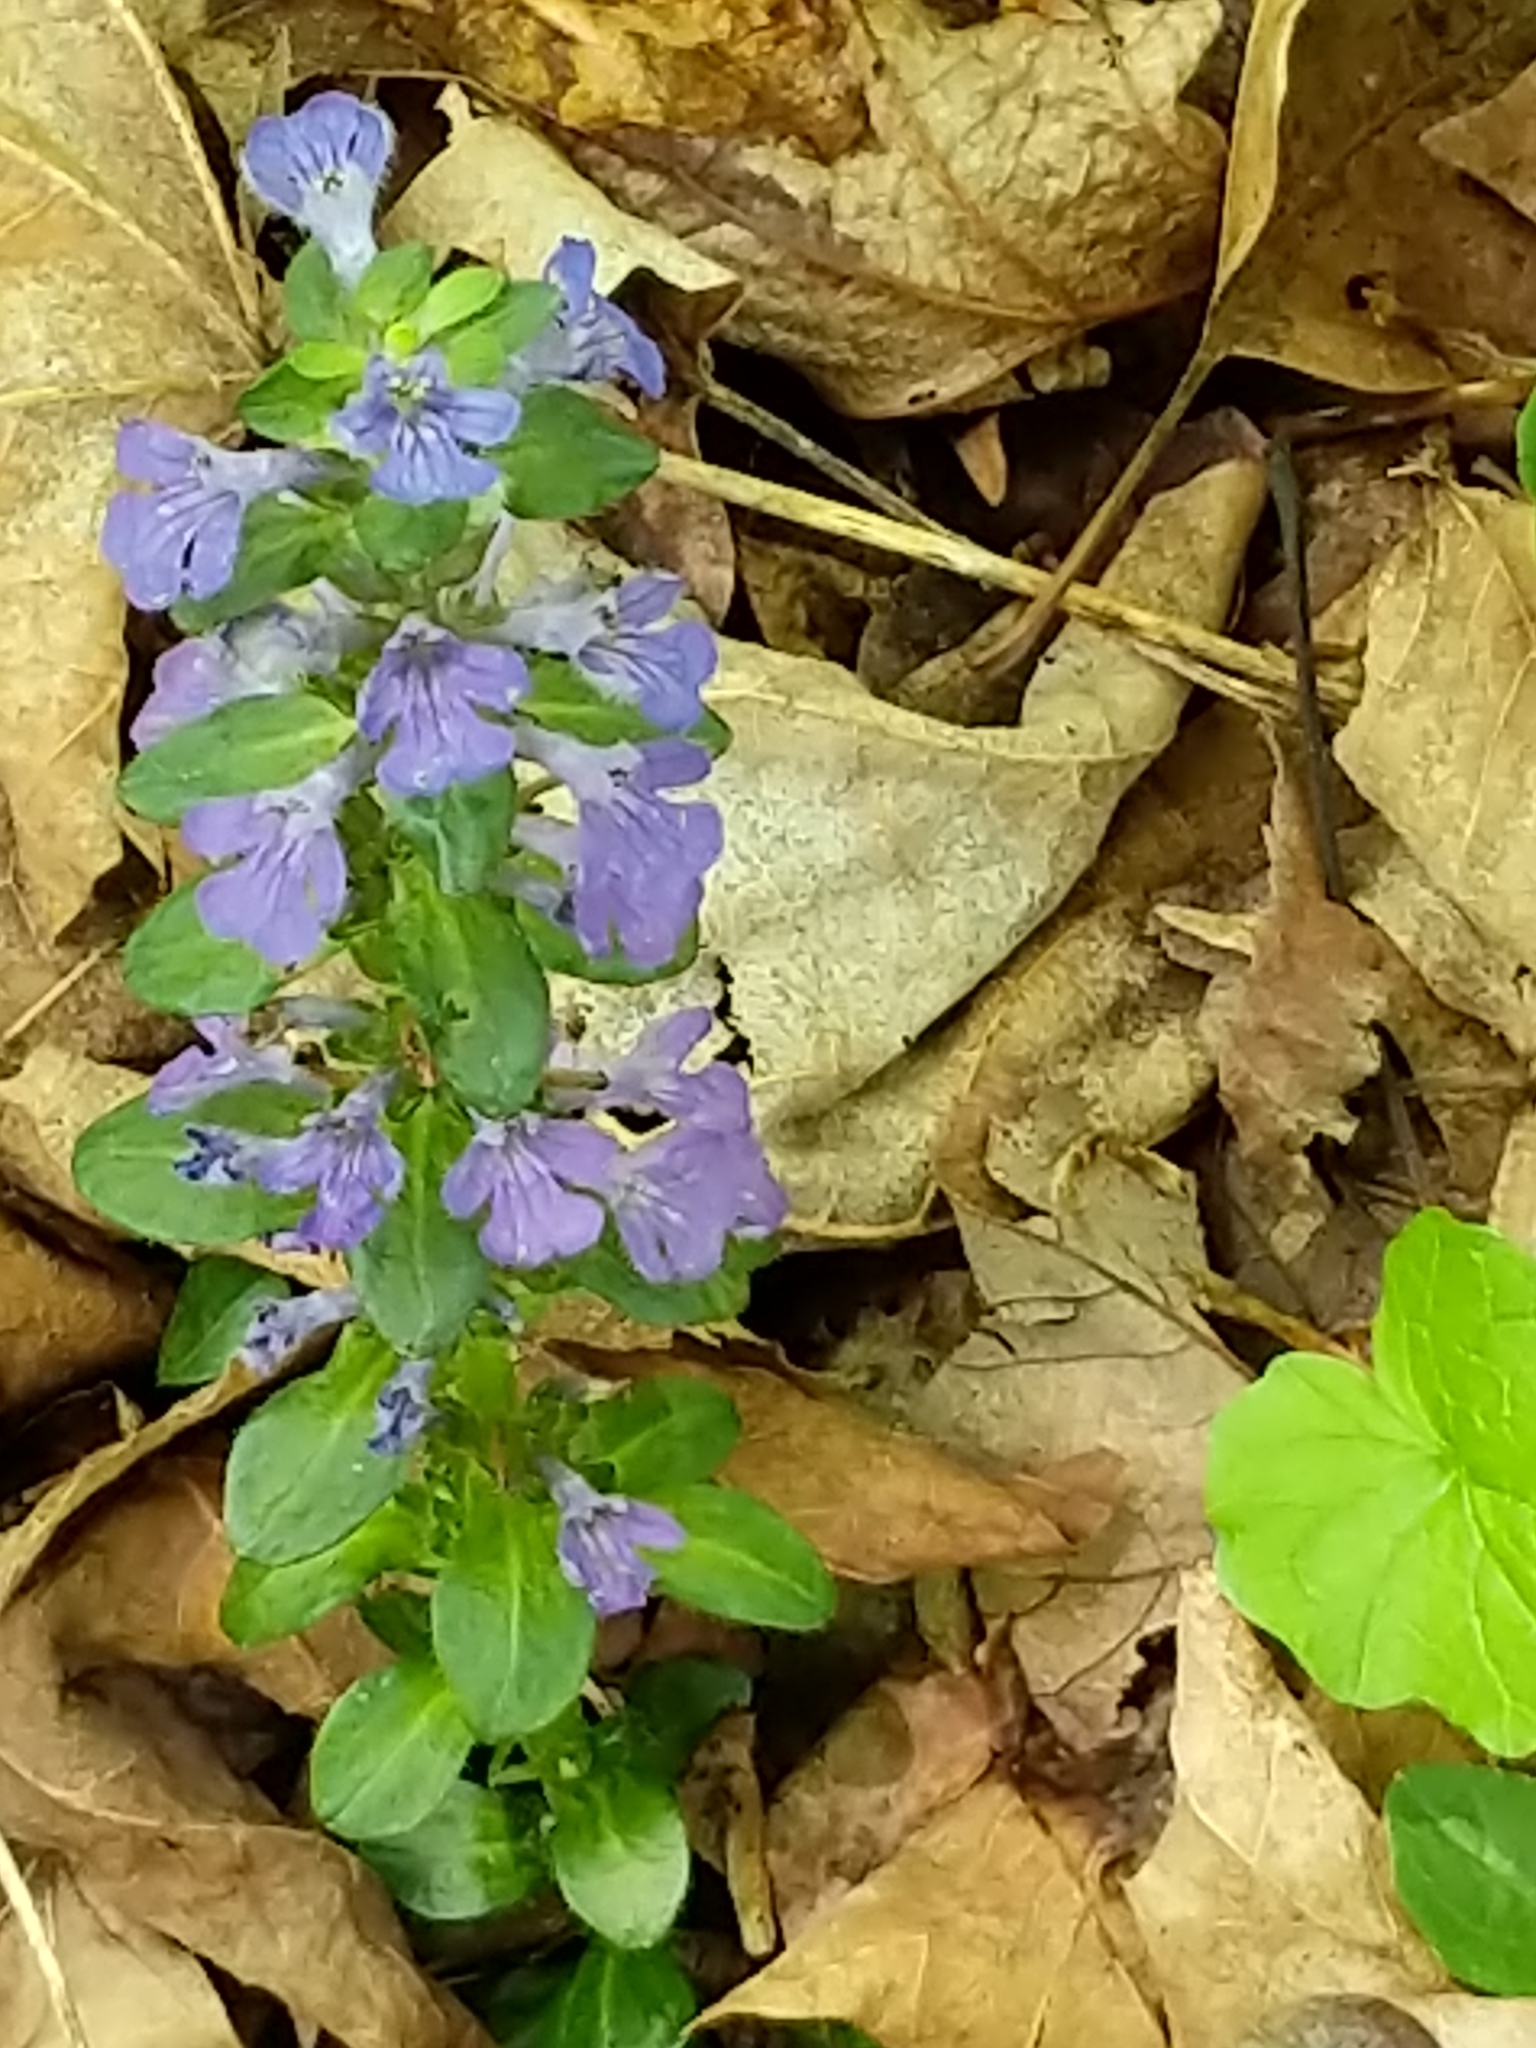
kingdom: Plantae
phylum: Tracheophyta
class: Magnoliopsida
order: Lamiales
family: Lamiaceae
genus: Ajuga
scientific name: Ajuga reptans
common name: Bugle
